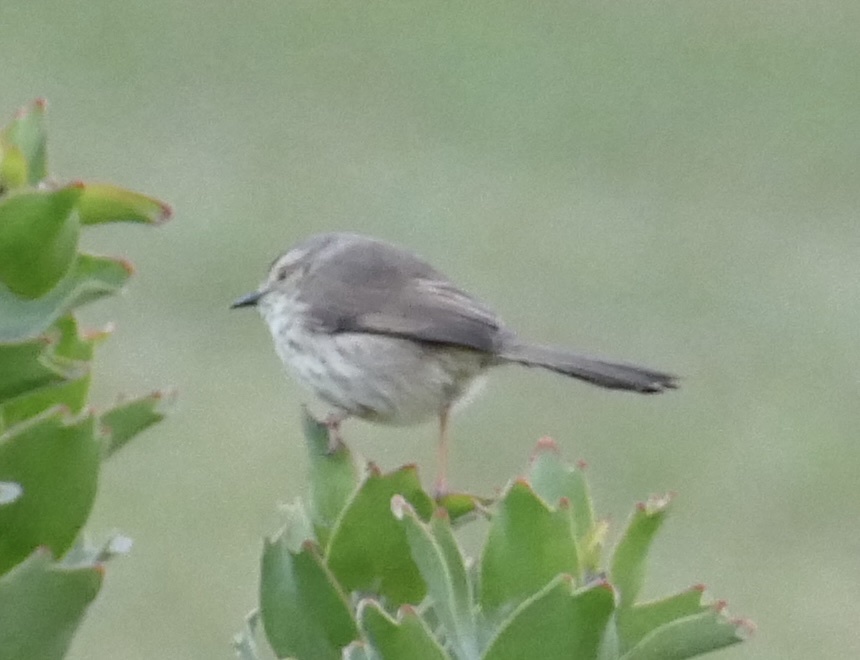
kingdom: Animalia
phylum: Chordata
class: Aves
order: Passeriformes
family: Cisticolidae
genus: Prinia
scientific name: Prinia maculosa
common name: Karoo prinia
